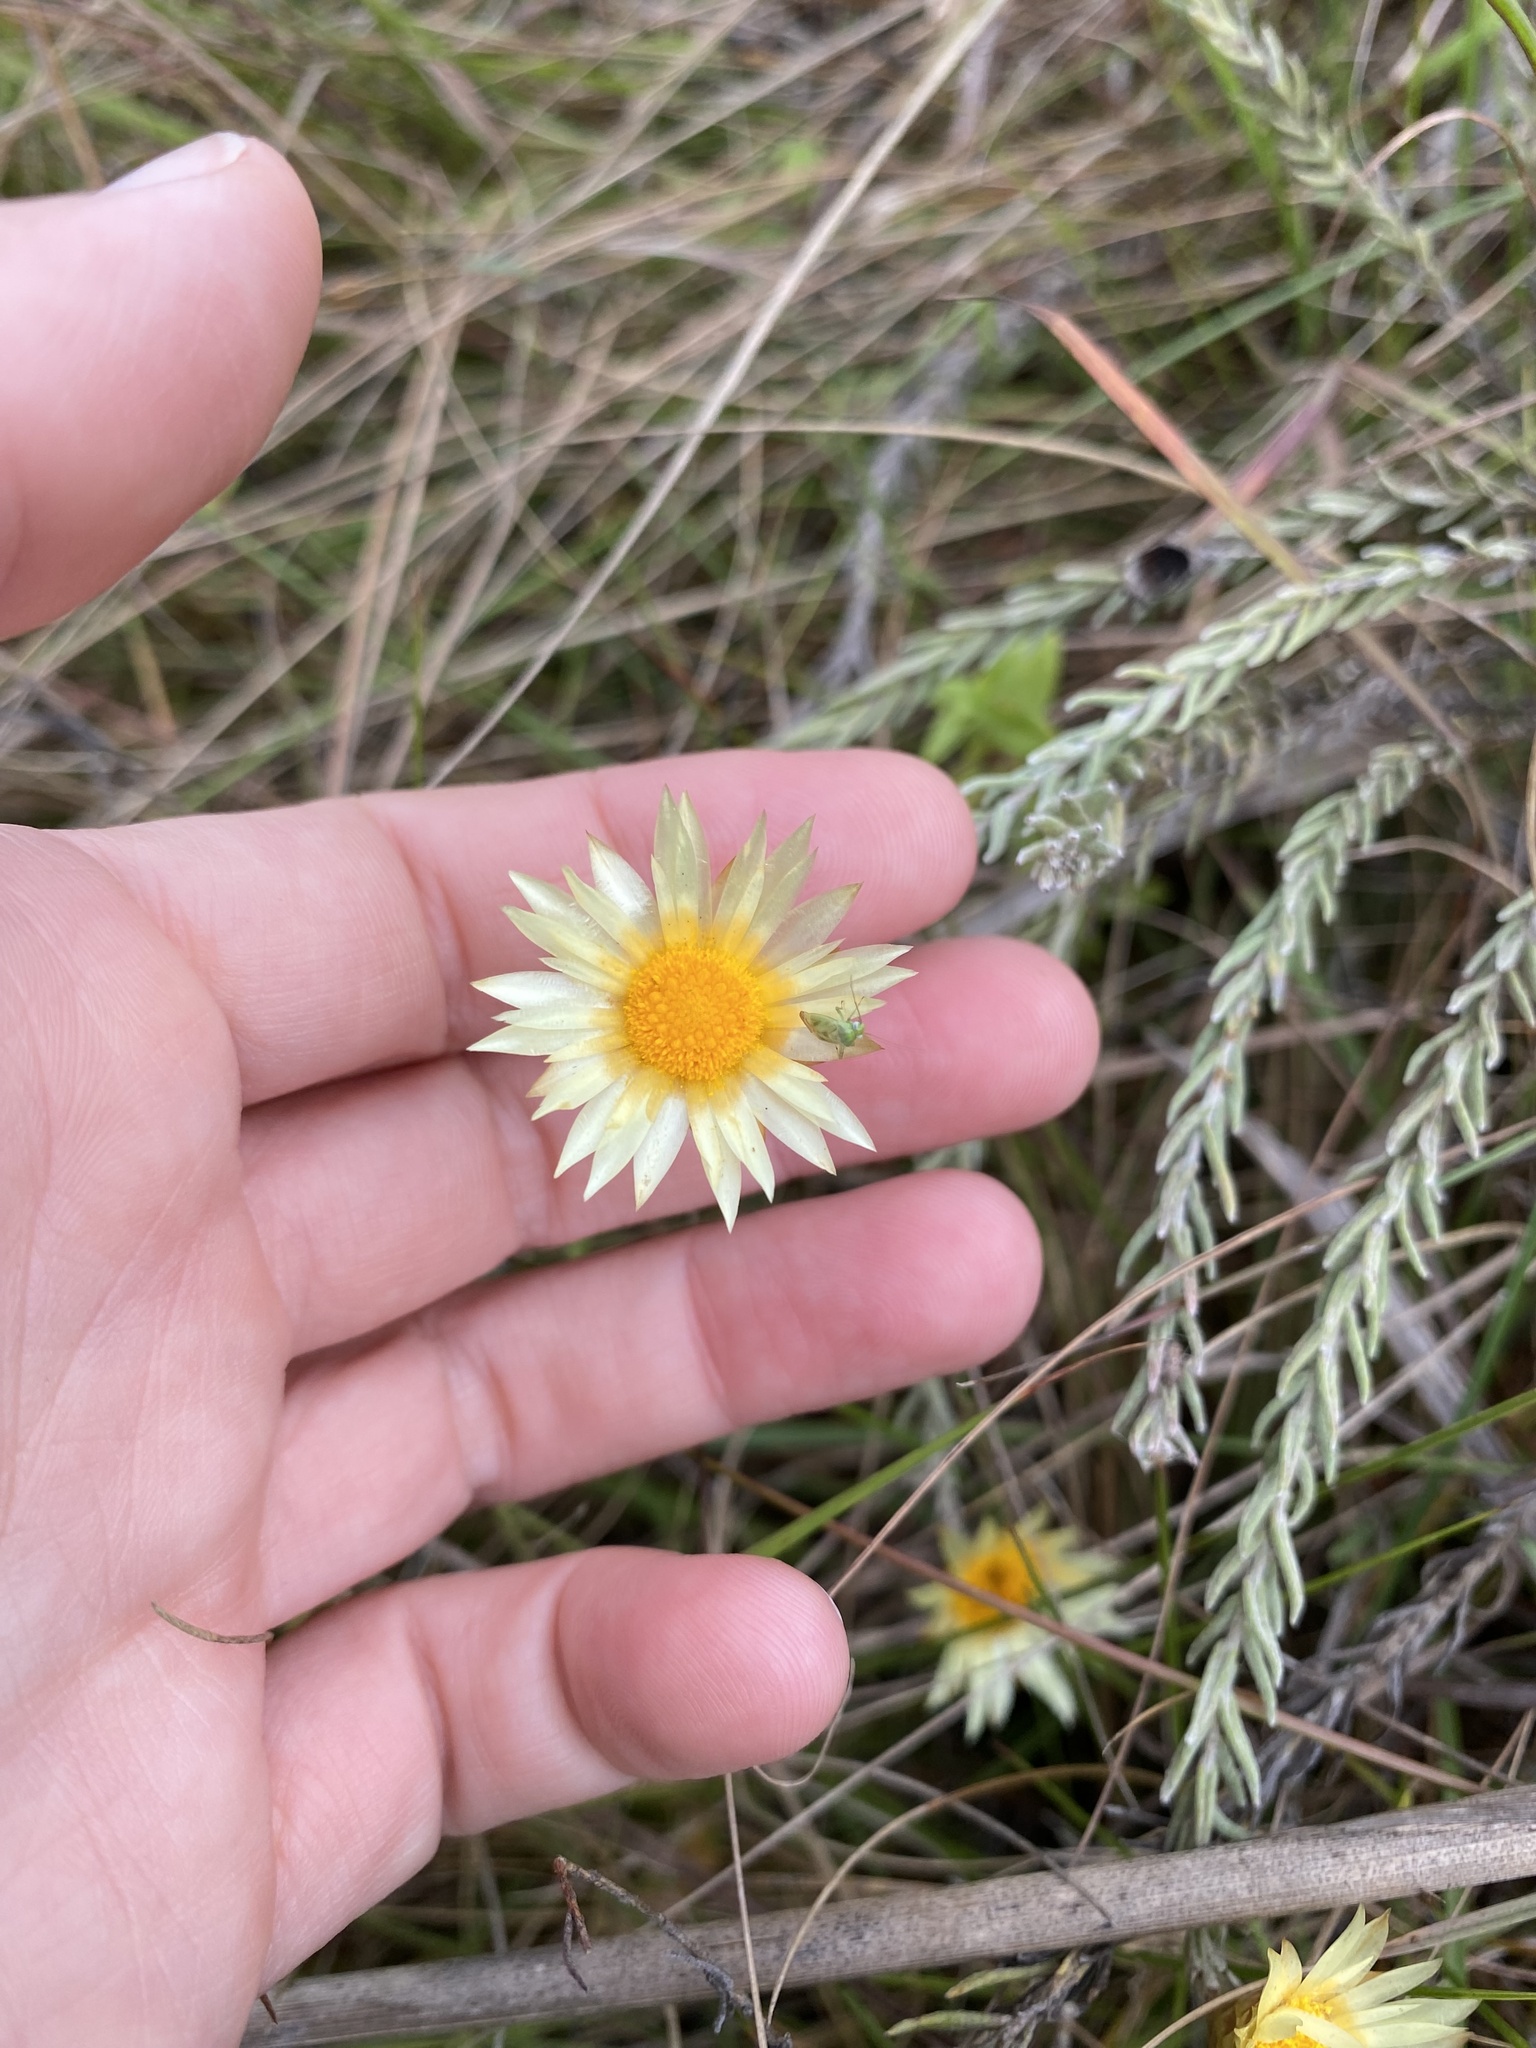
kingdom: Plantae
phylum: Tracheophyta
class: Magnoliopsida
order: Asterales
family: Asteraceae
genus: Helichrysum
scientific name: Helichrysum herbaceum
